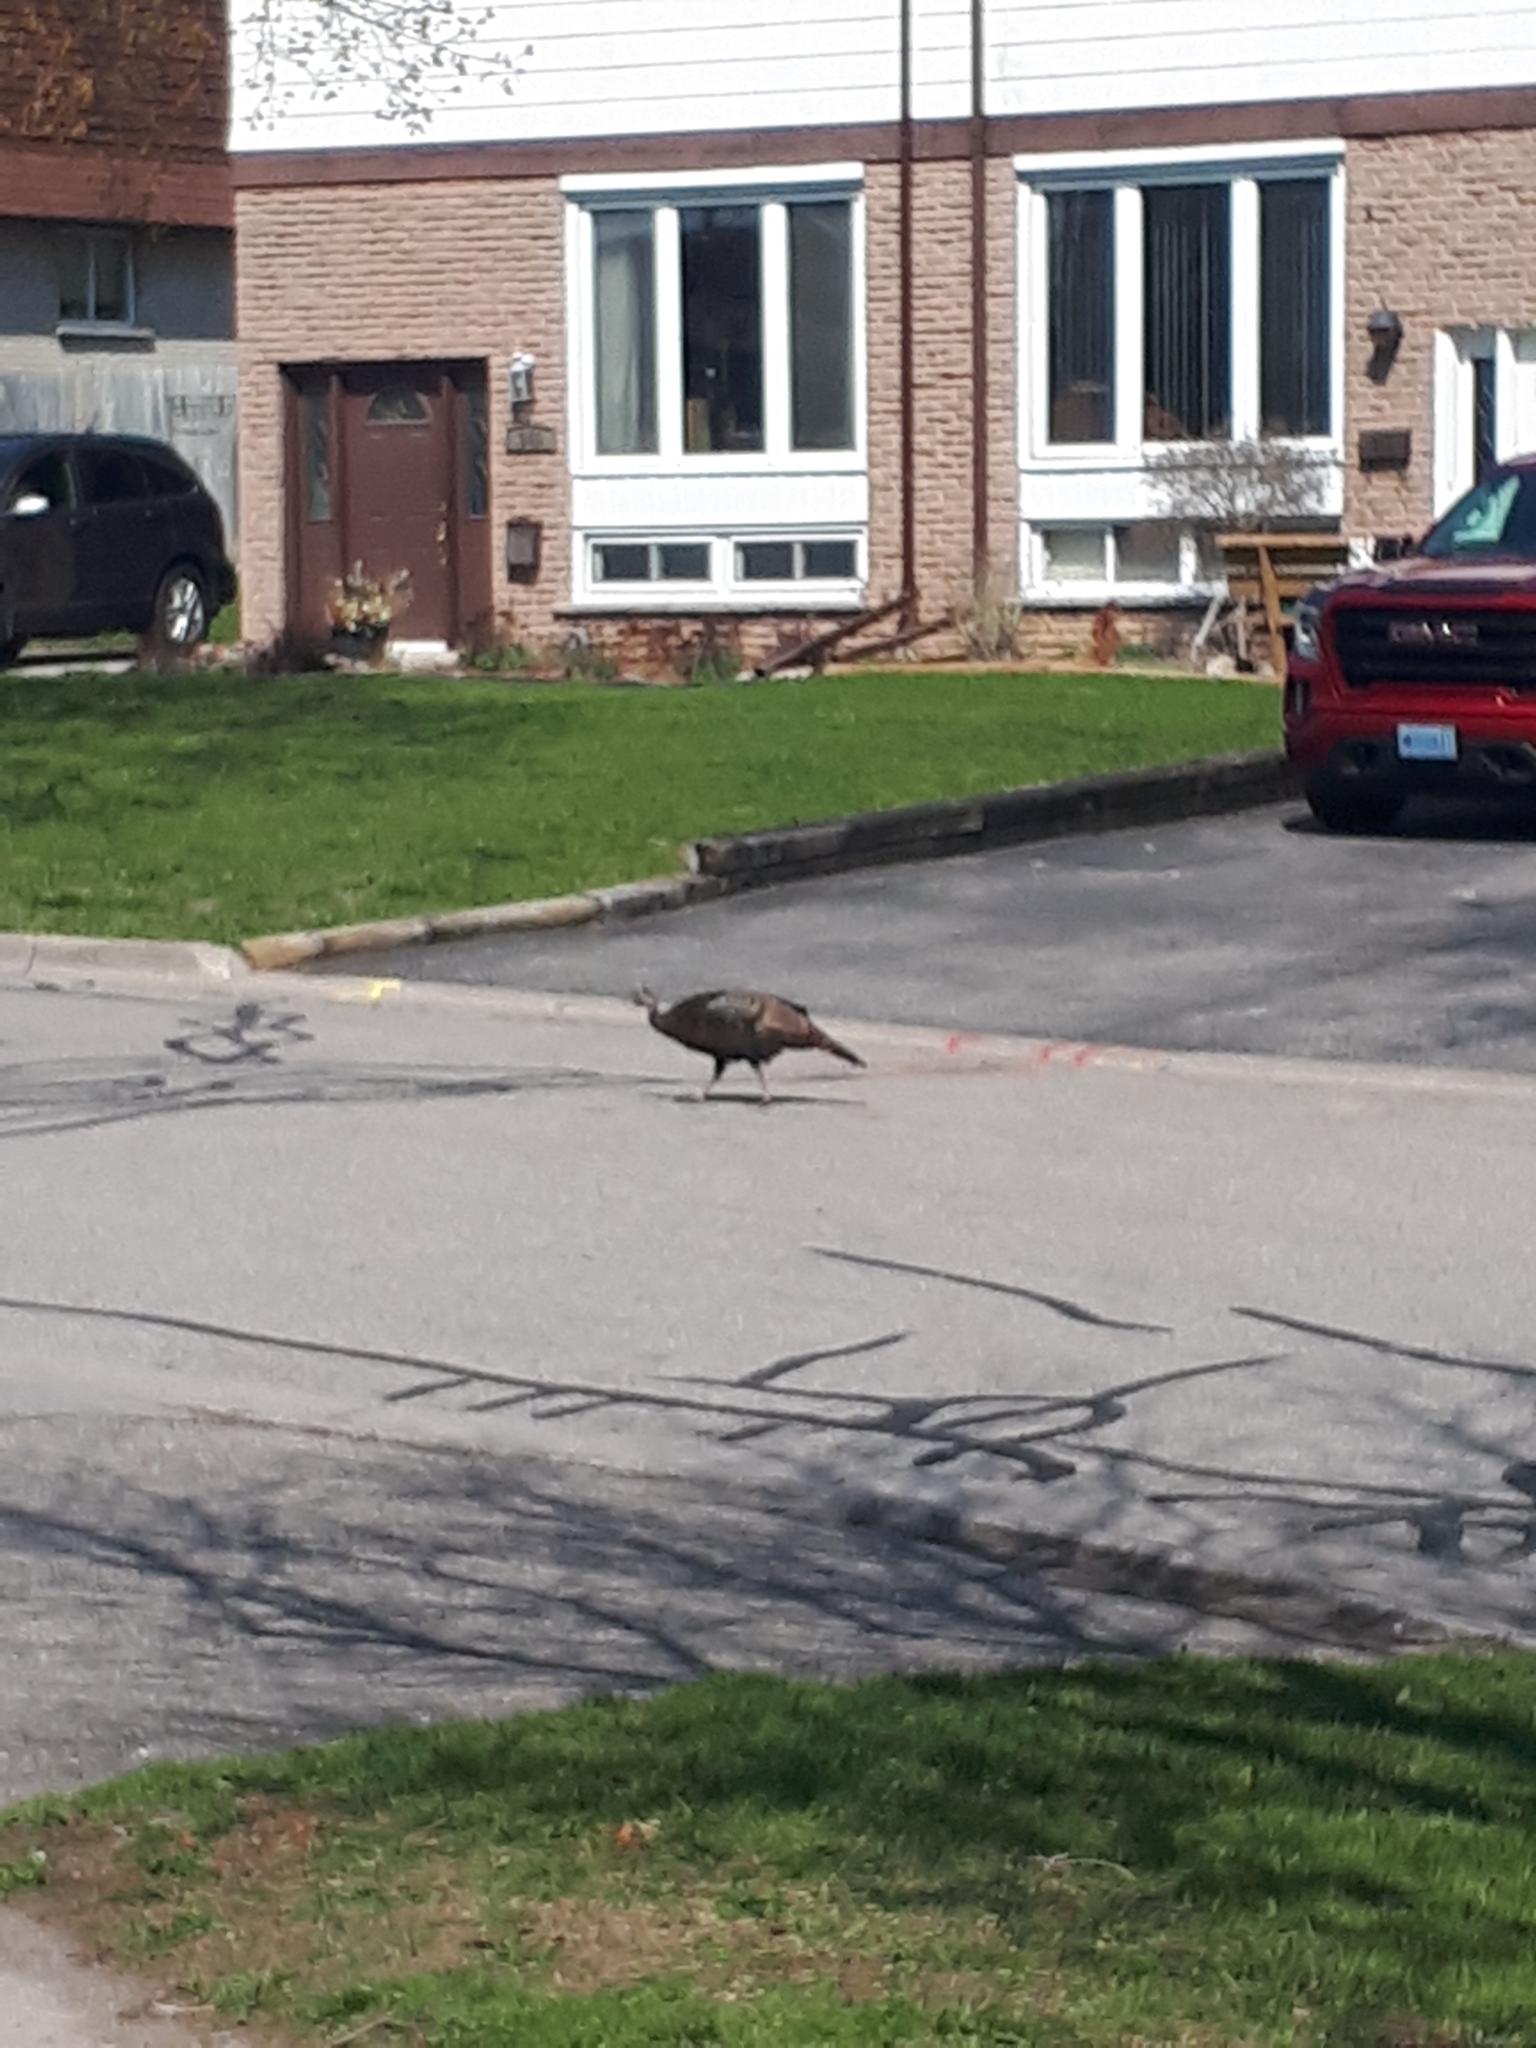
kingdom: Animalia
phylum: Chordata
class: Aves
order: Galliformes
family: Phasianidae
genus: Meleagris
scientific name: Meleagris gallopavo
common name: Wild turkey
